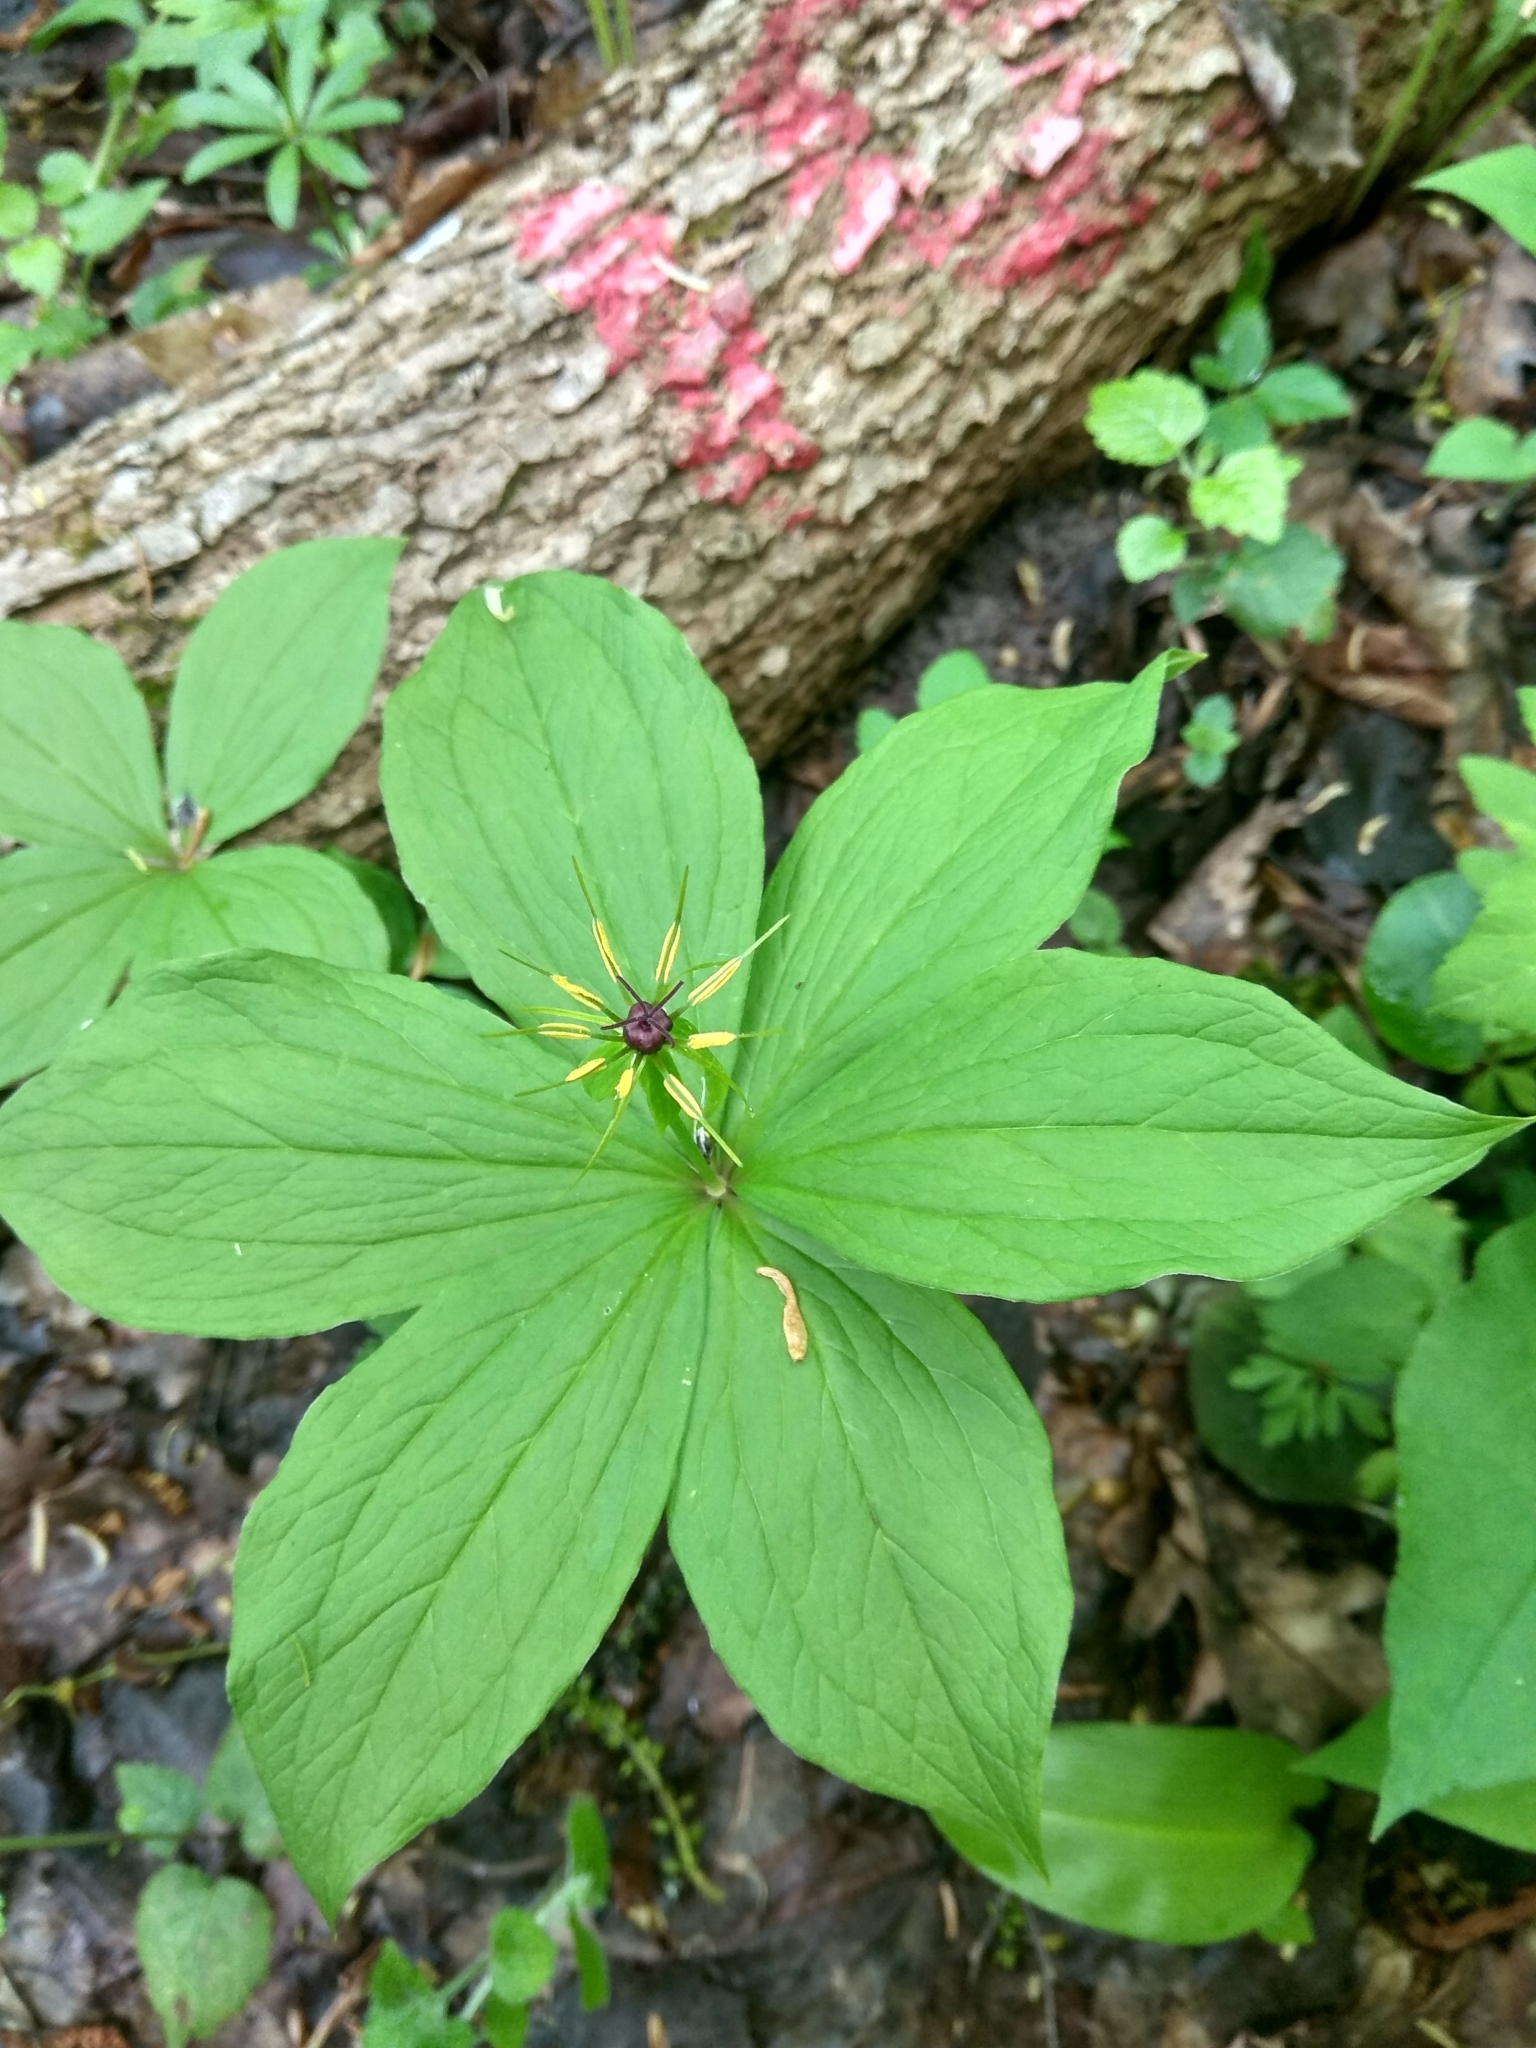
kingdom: Plantae
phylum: Tracheophyta
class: Liliopsida
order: Liliales
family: Melanthiaceae
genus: Paris
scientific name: Paris quadrifolia
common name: Herb-paris
